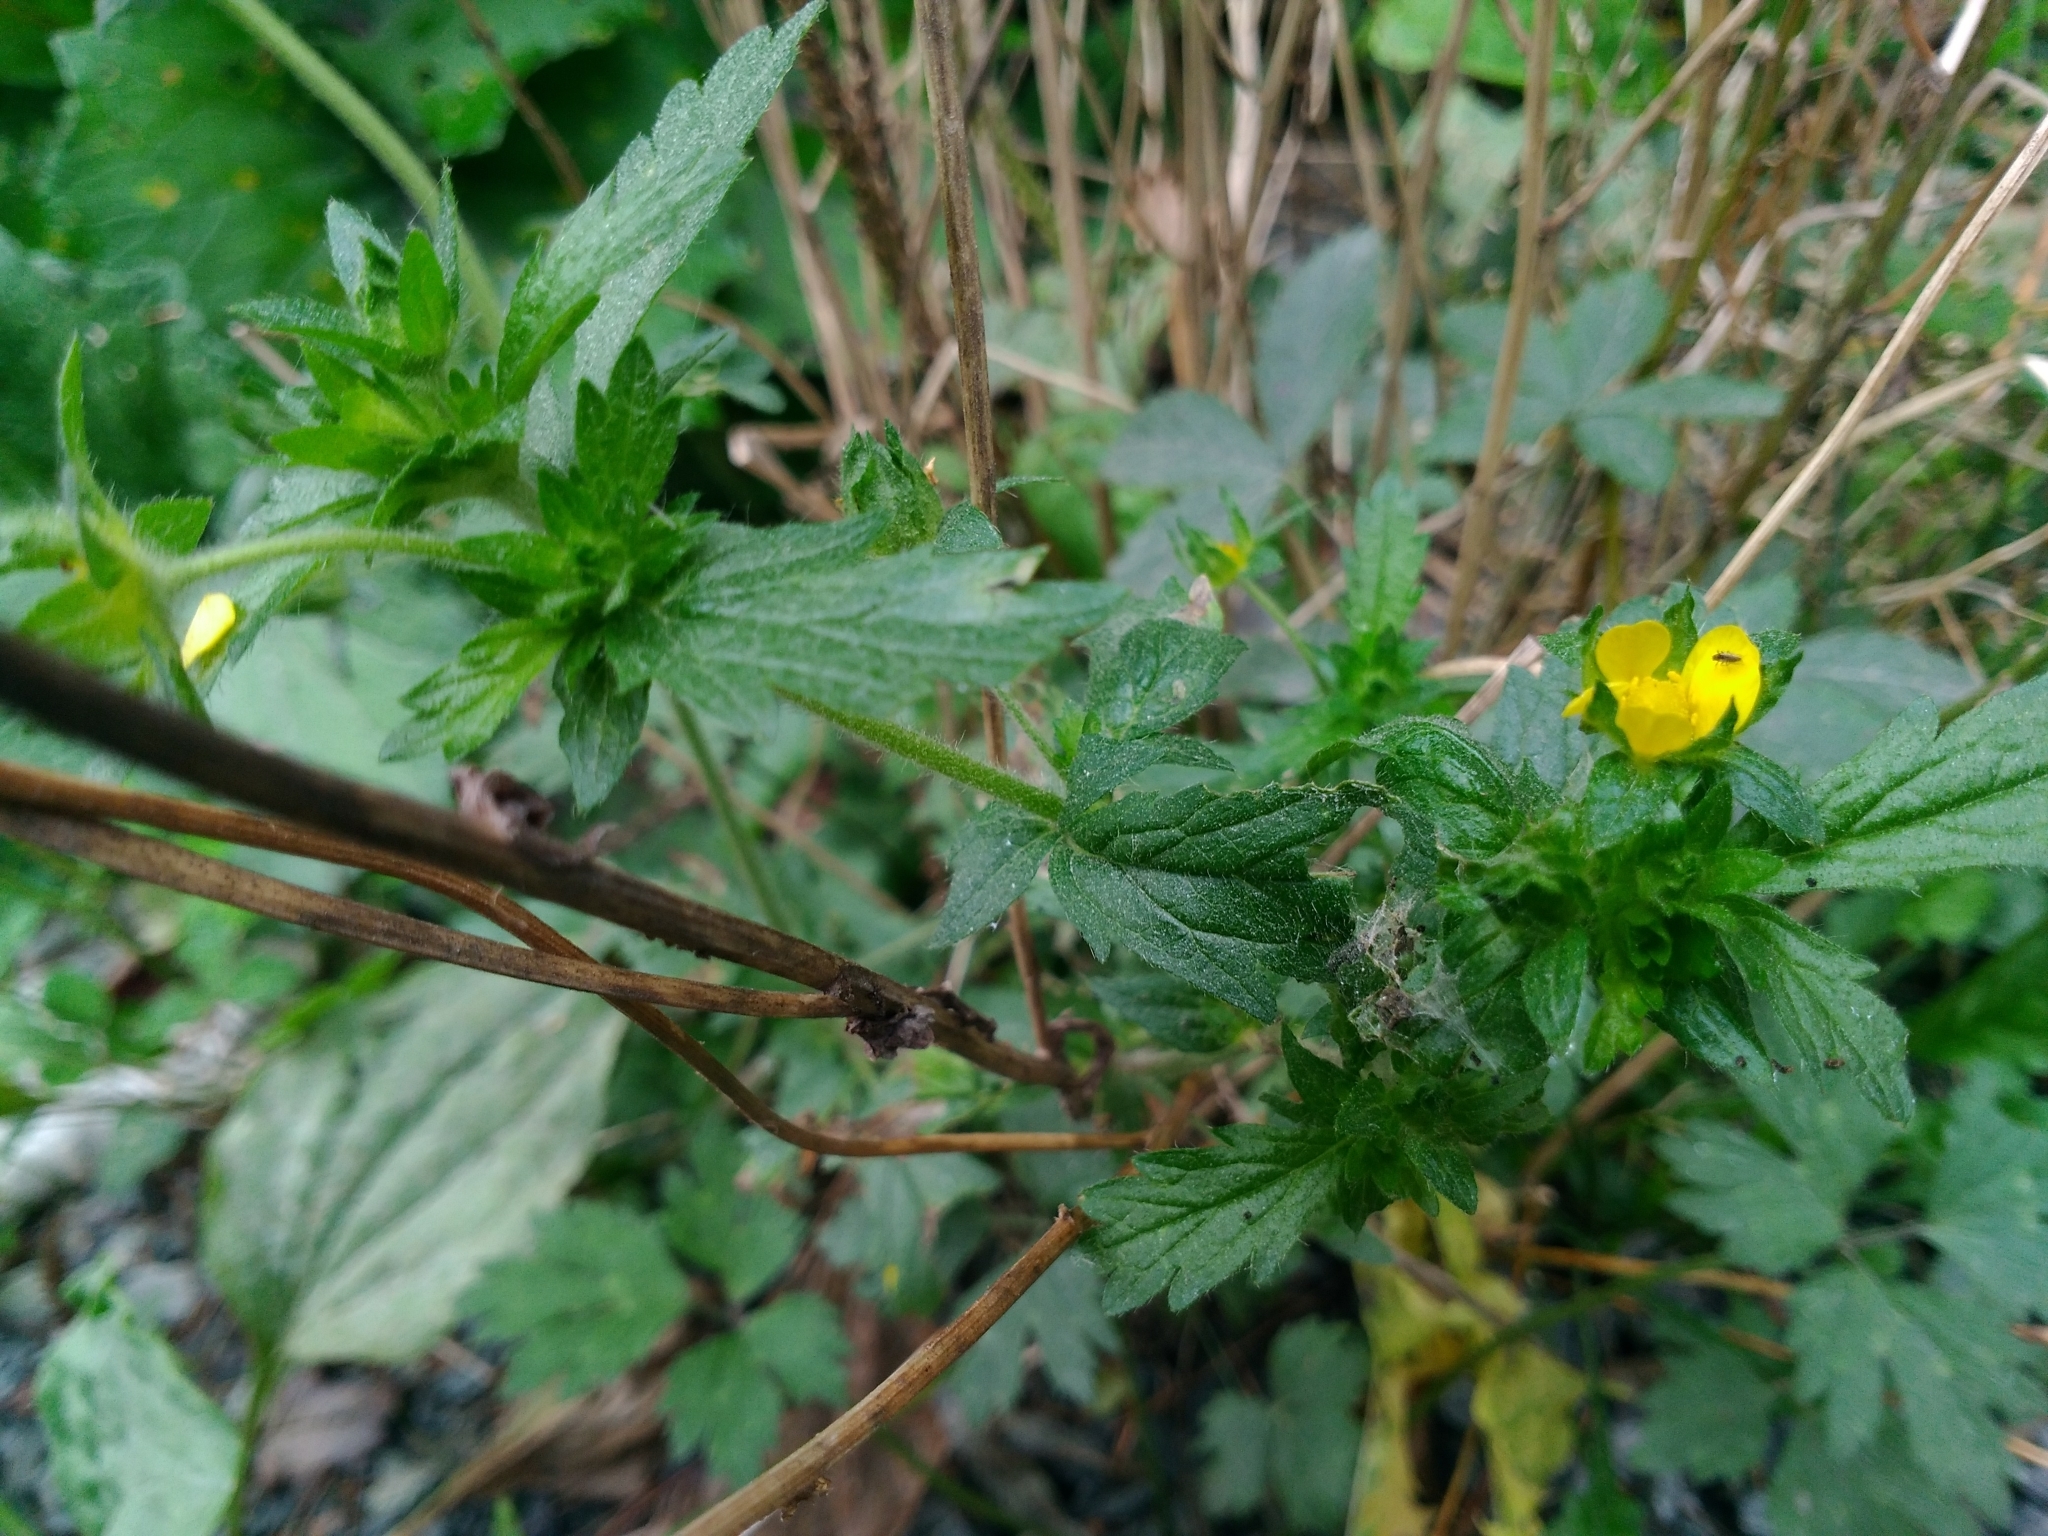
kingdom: Plantae
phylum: Tracheophyta
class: Magnoliopsida
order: Rosales
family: Rosaceae
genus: Potentilla
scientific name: Potentilla norvegica
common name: Ternate-leaved cinquefoil
